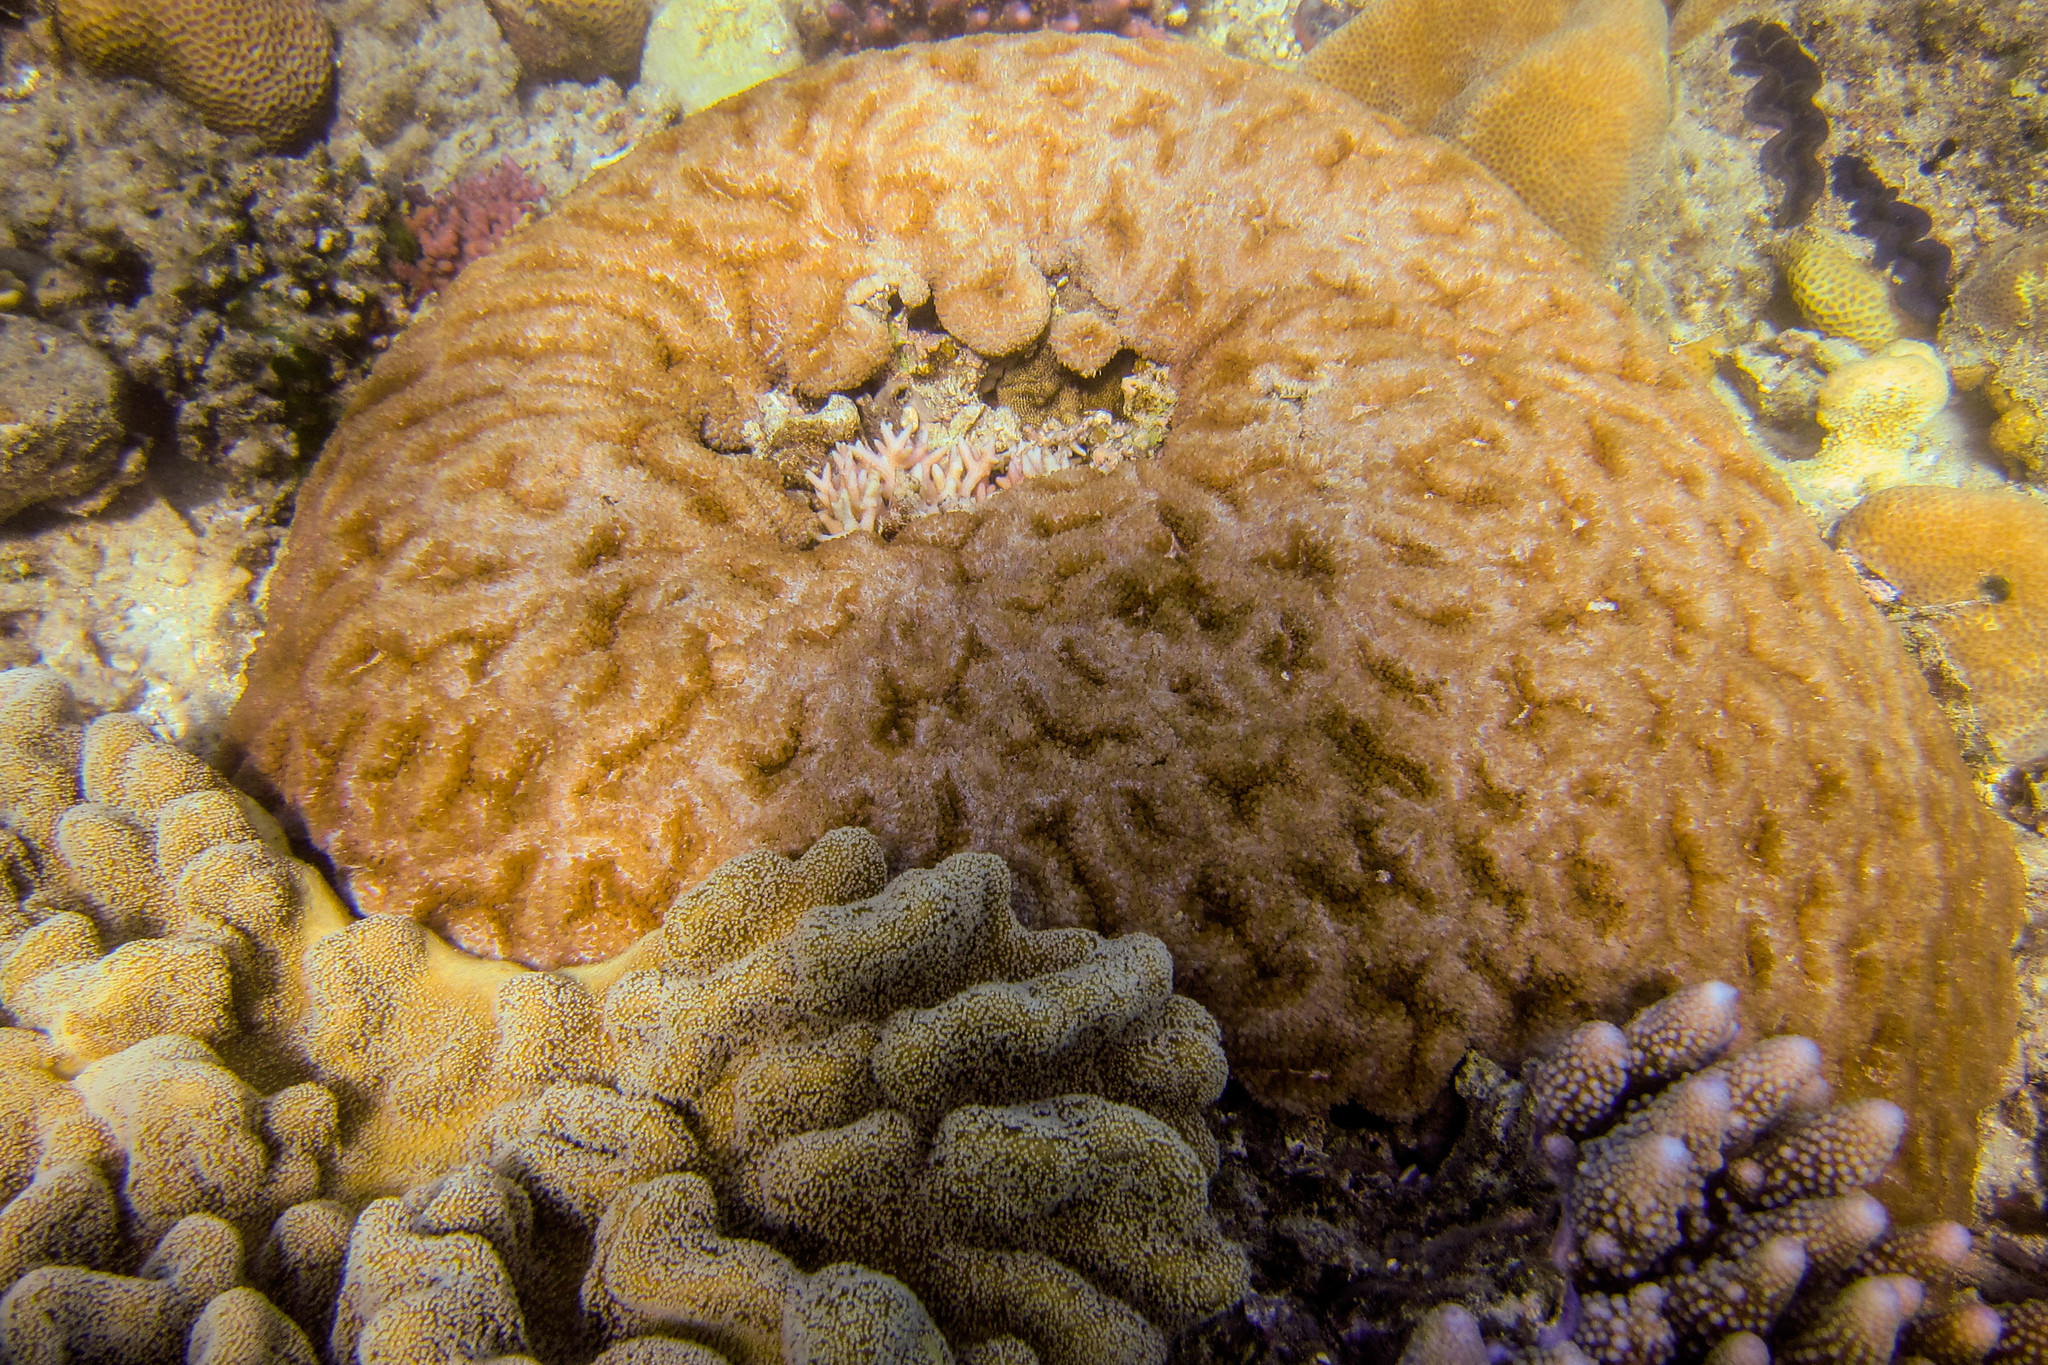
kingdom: Animalia
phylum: Cnidaria
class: Anthozoa
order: Scleractinia
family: Pocilloporidae
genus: Seriatopora
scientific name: Seriatopora hystrix
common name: Bush coral
